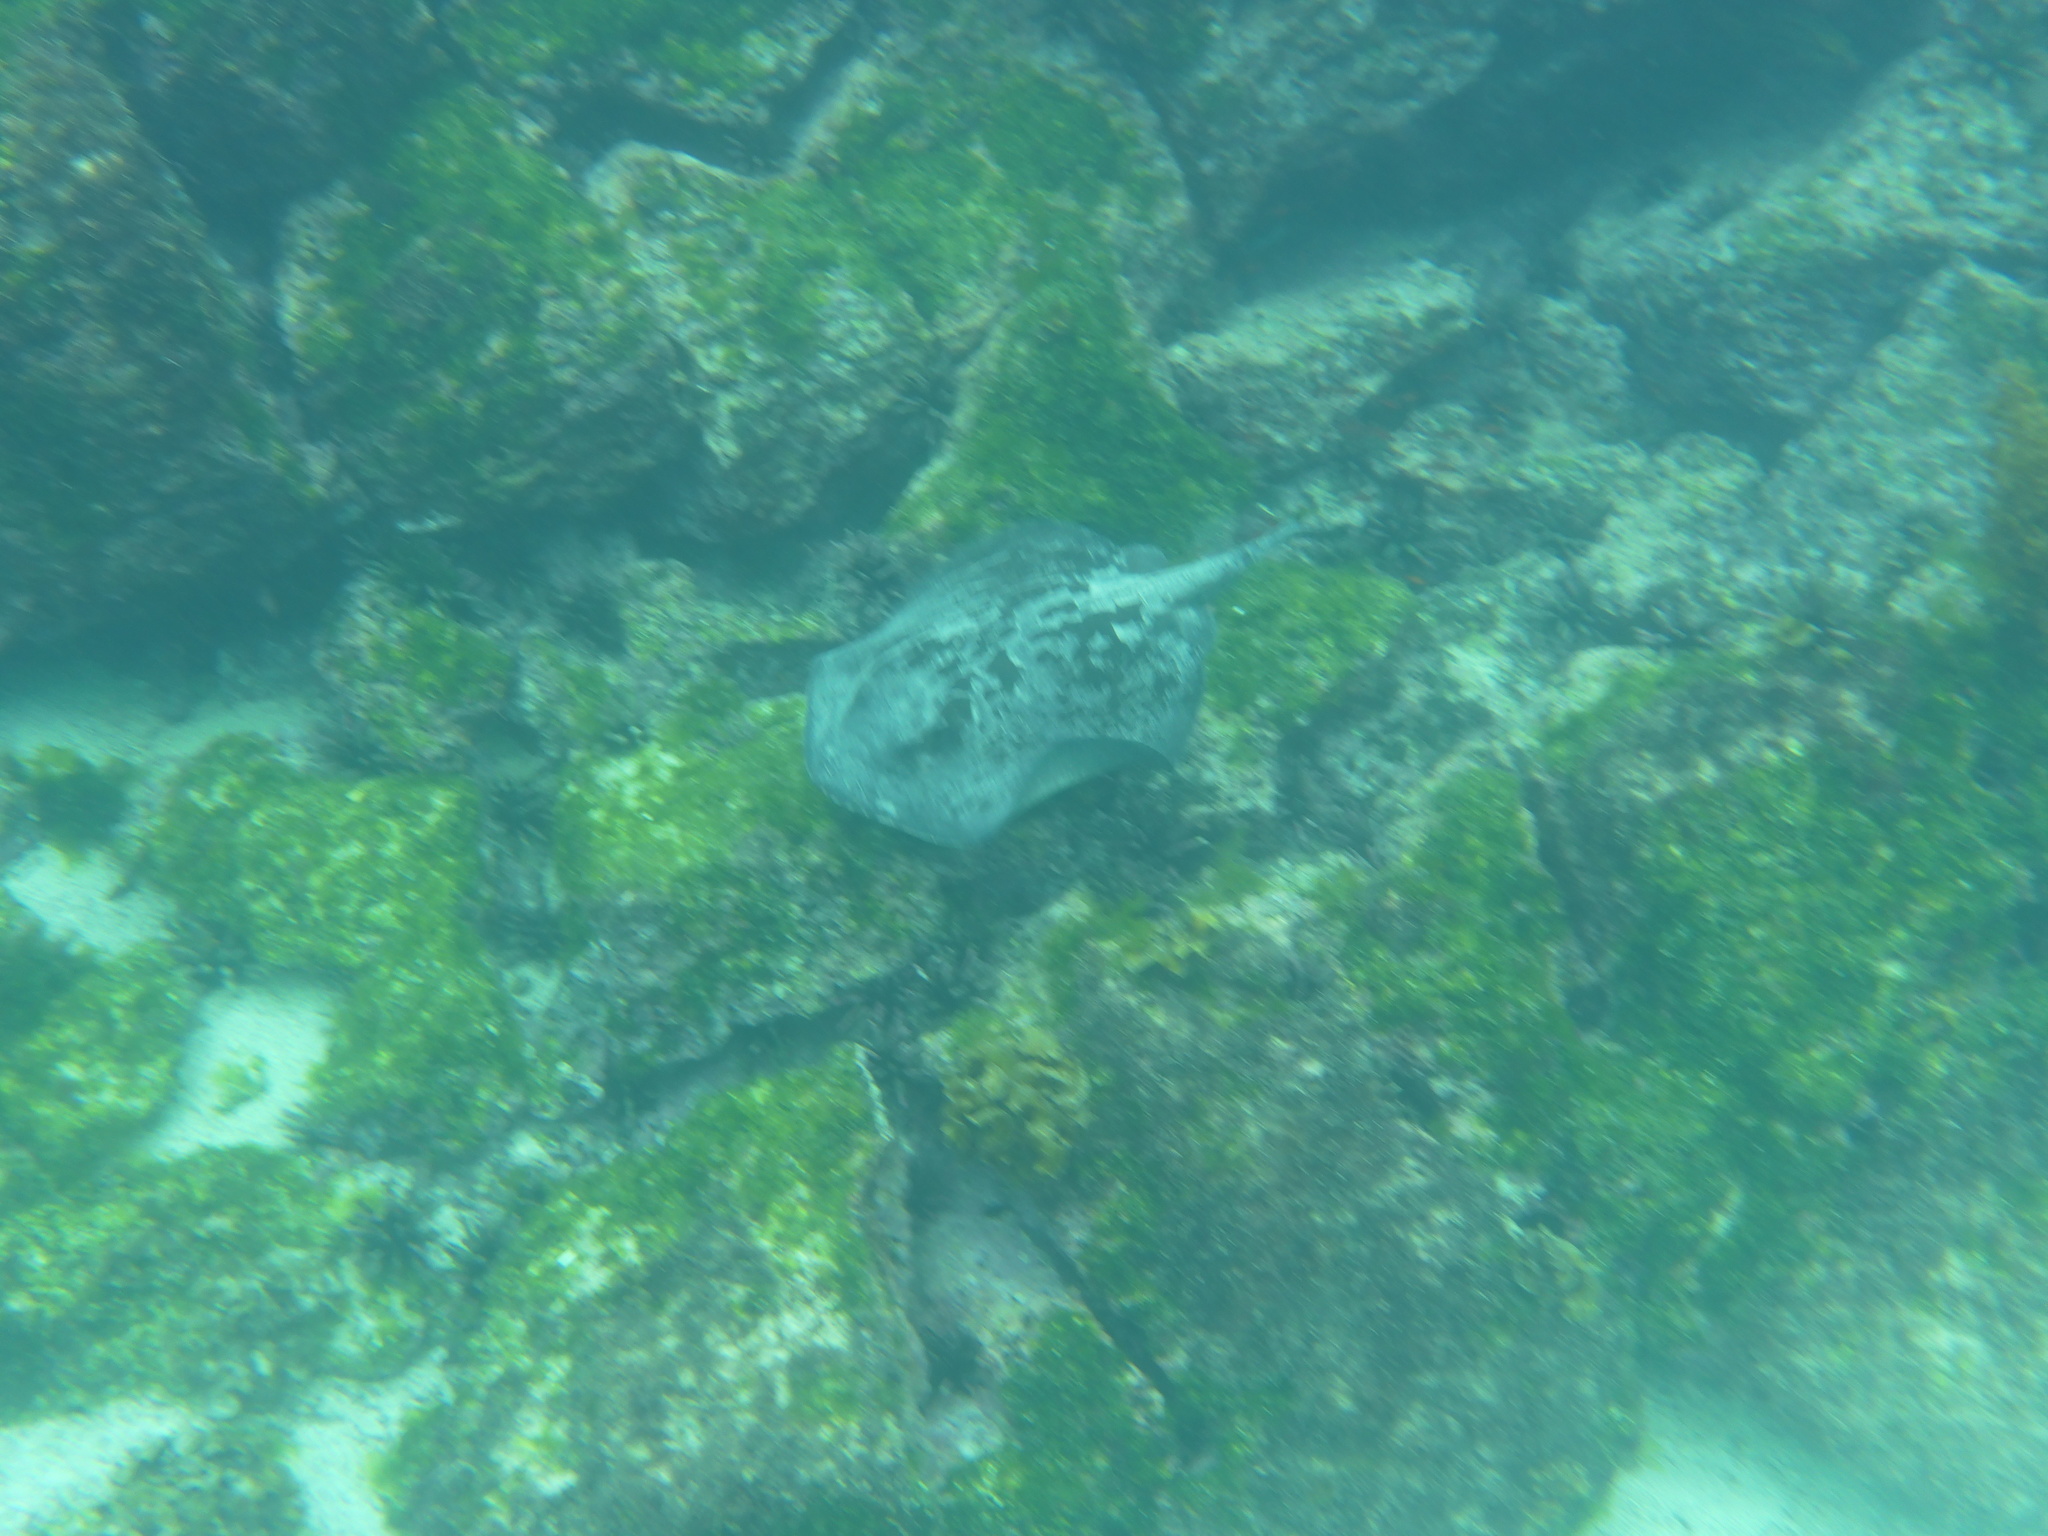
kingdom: Animalia
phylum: Chordata
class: Elasmobranchii
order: Myliobatiformes
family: Dasyatidae
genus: Hypanus
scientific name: Hypanus dipterurus
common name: Diamond stingray
